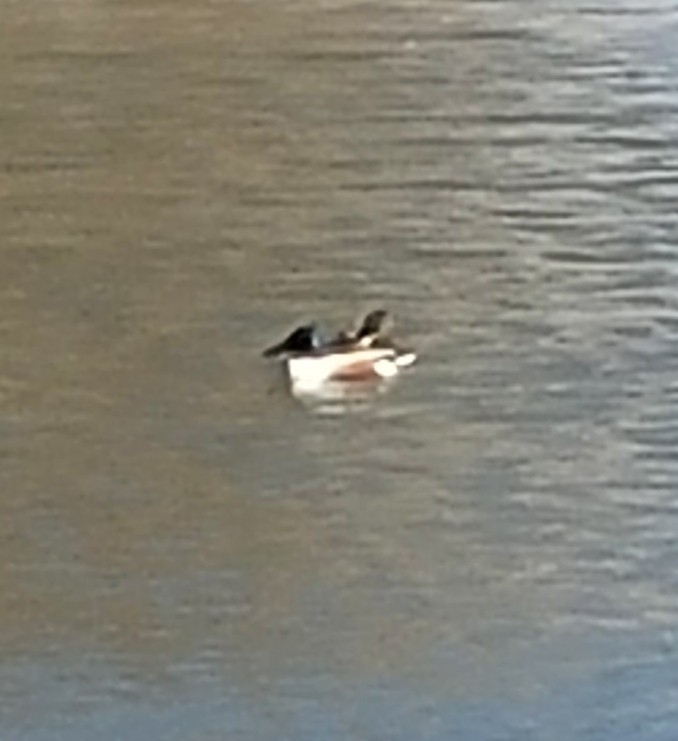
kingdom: Animalia
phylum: Chordata
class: Aves
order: Anseriformes
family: Anatidae
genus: Spatula
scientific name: Spatula clypeata
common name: Northern shoveler
